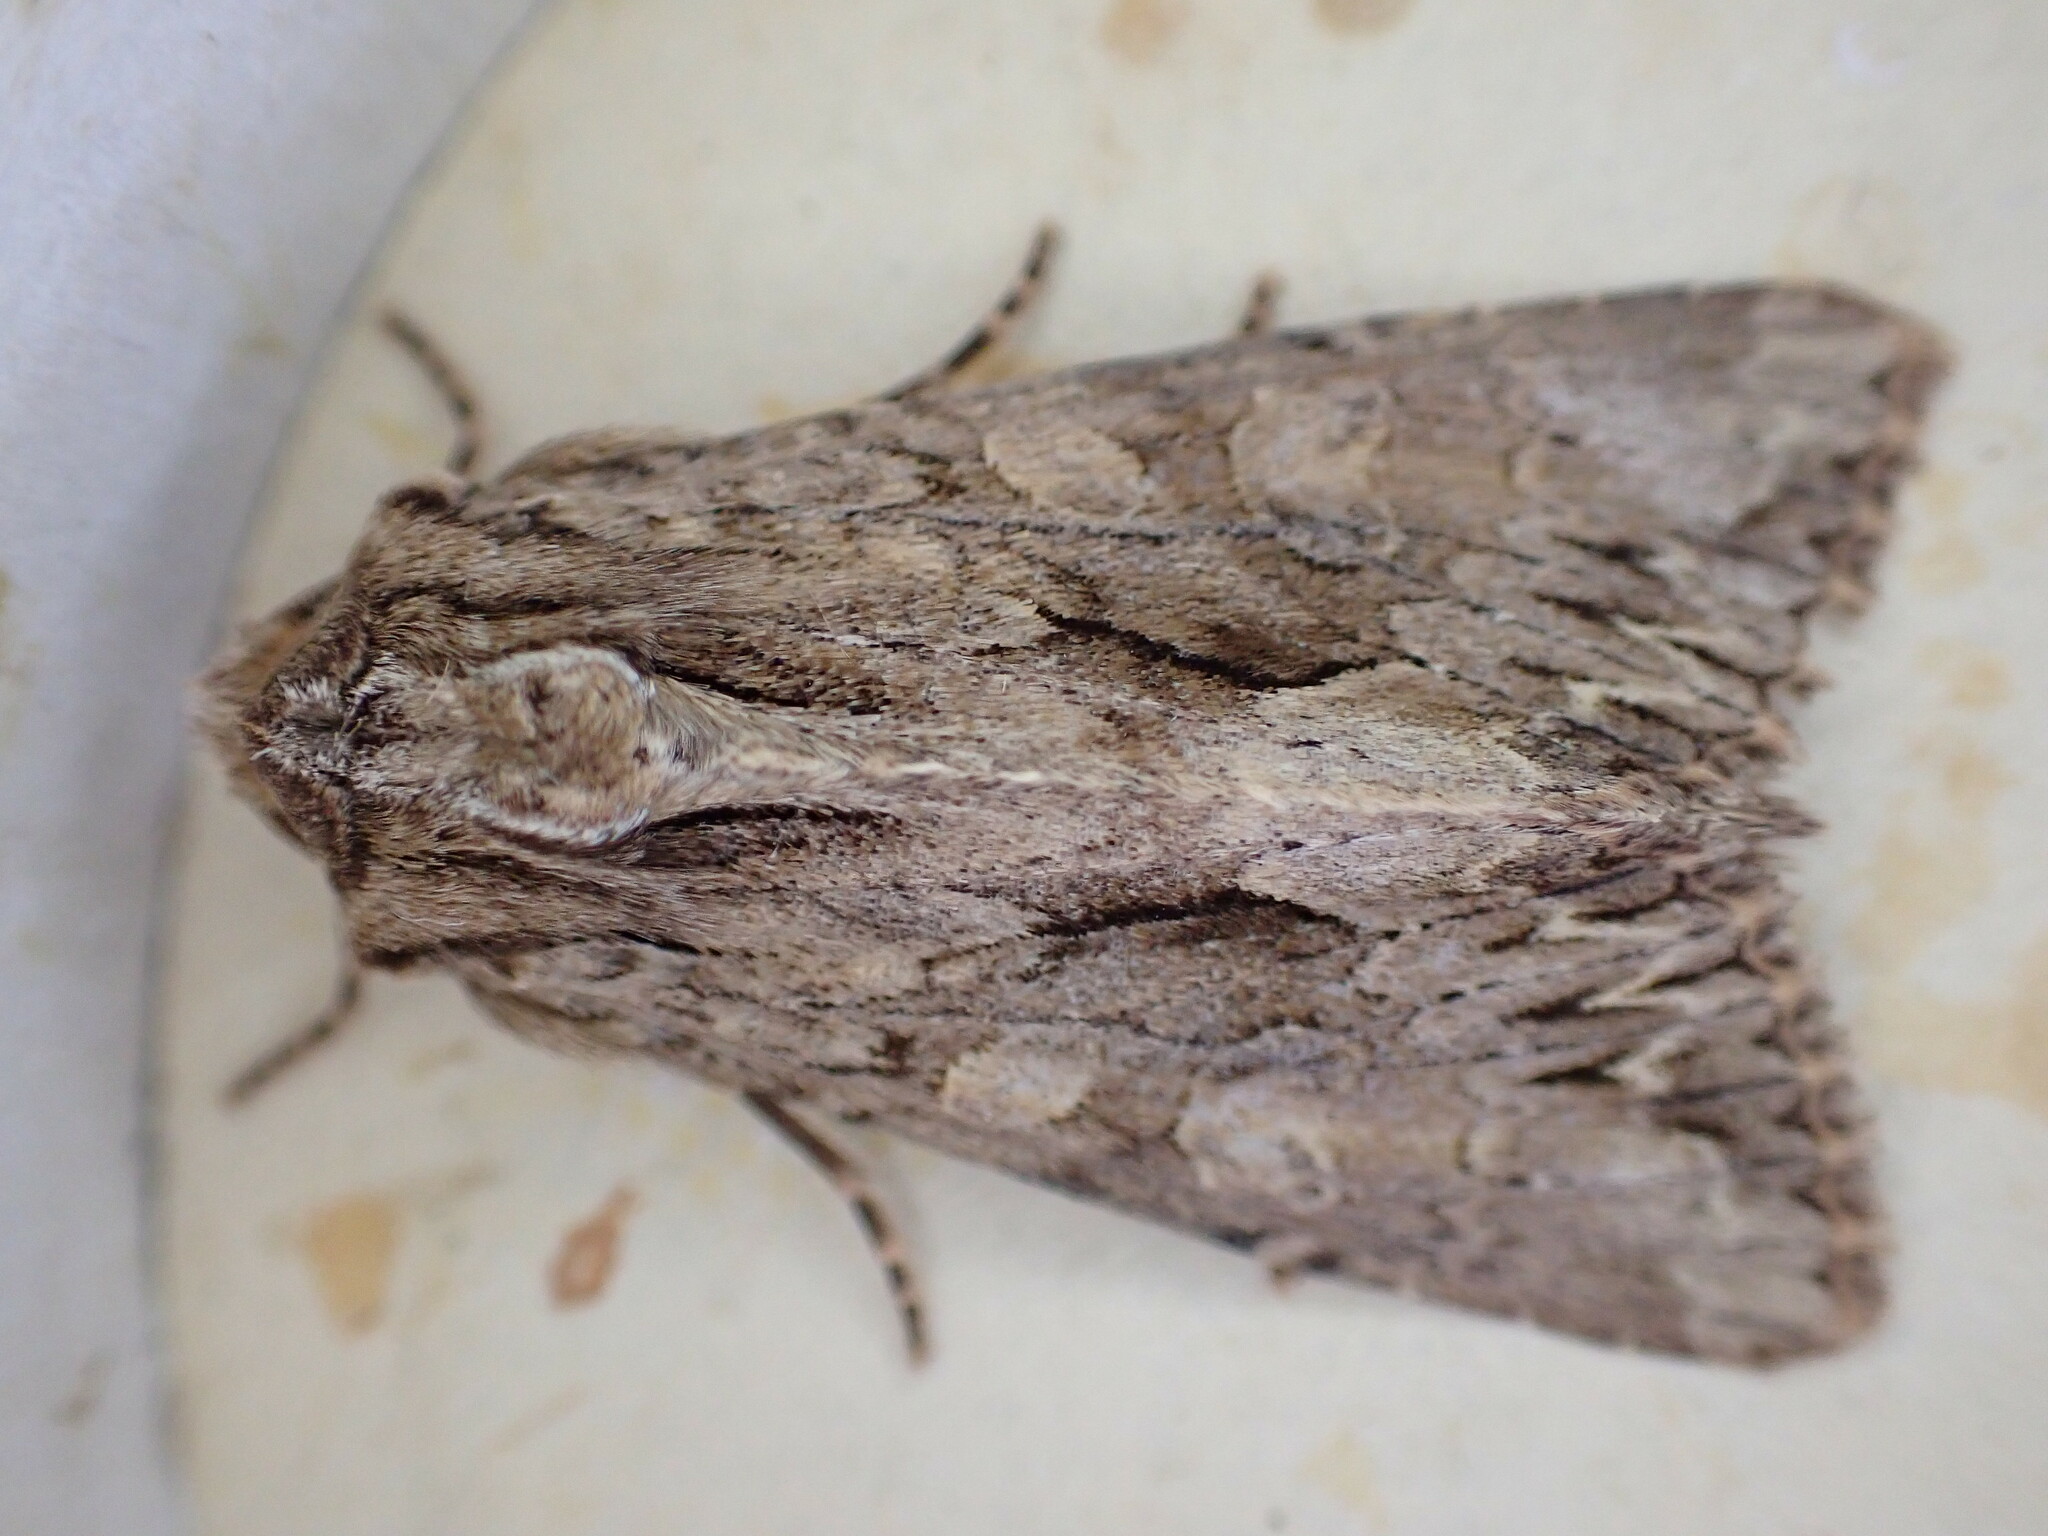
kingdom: Animalia
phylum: Arthropoda
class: Insecta
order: Lepidoptera
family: Noctuidae
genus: Apamea
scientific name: Apamea monoglypha
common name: Dark arches
